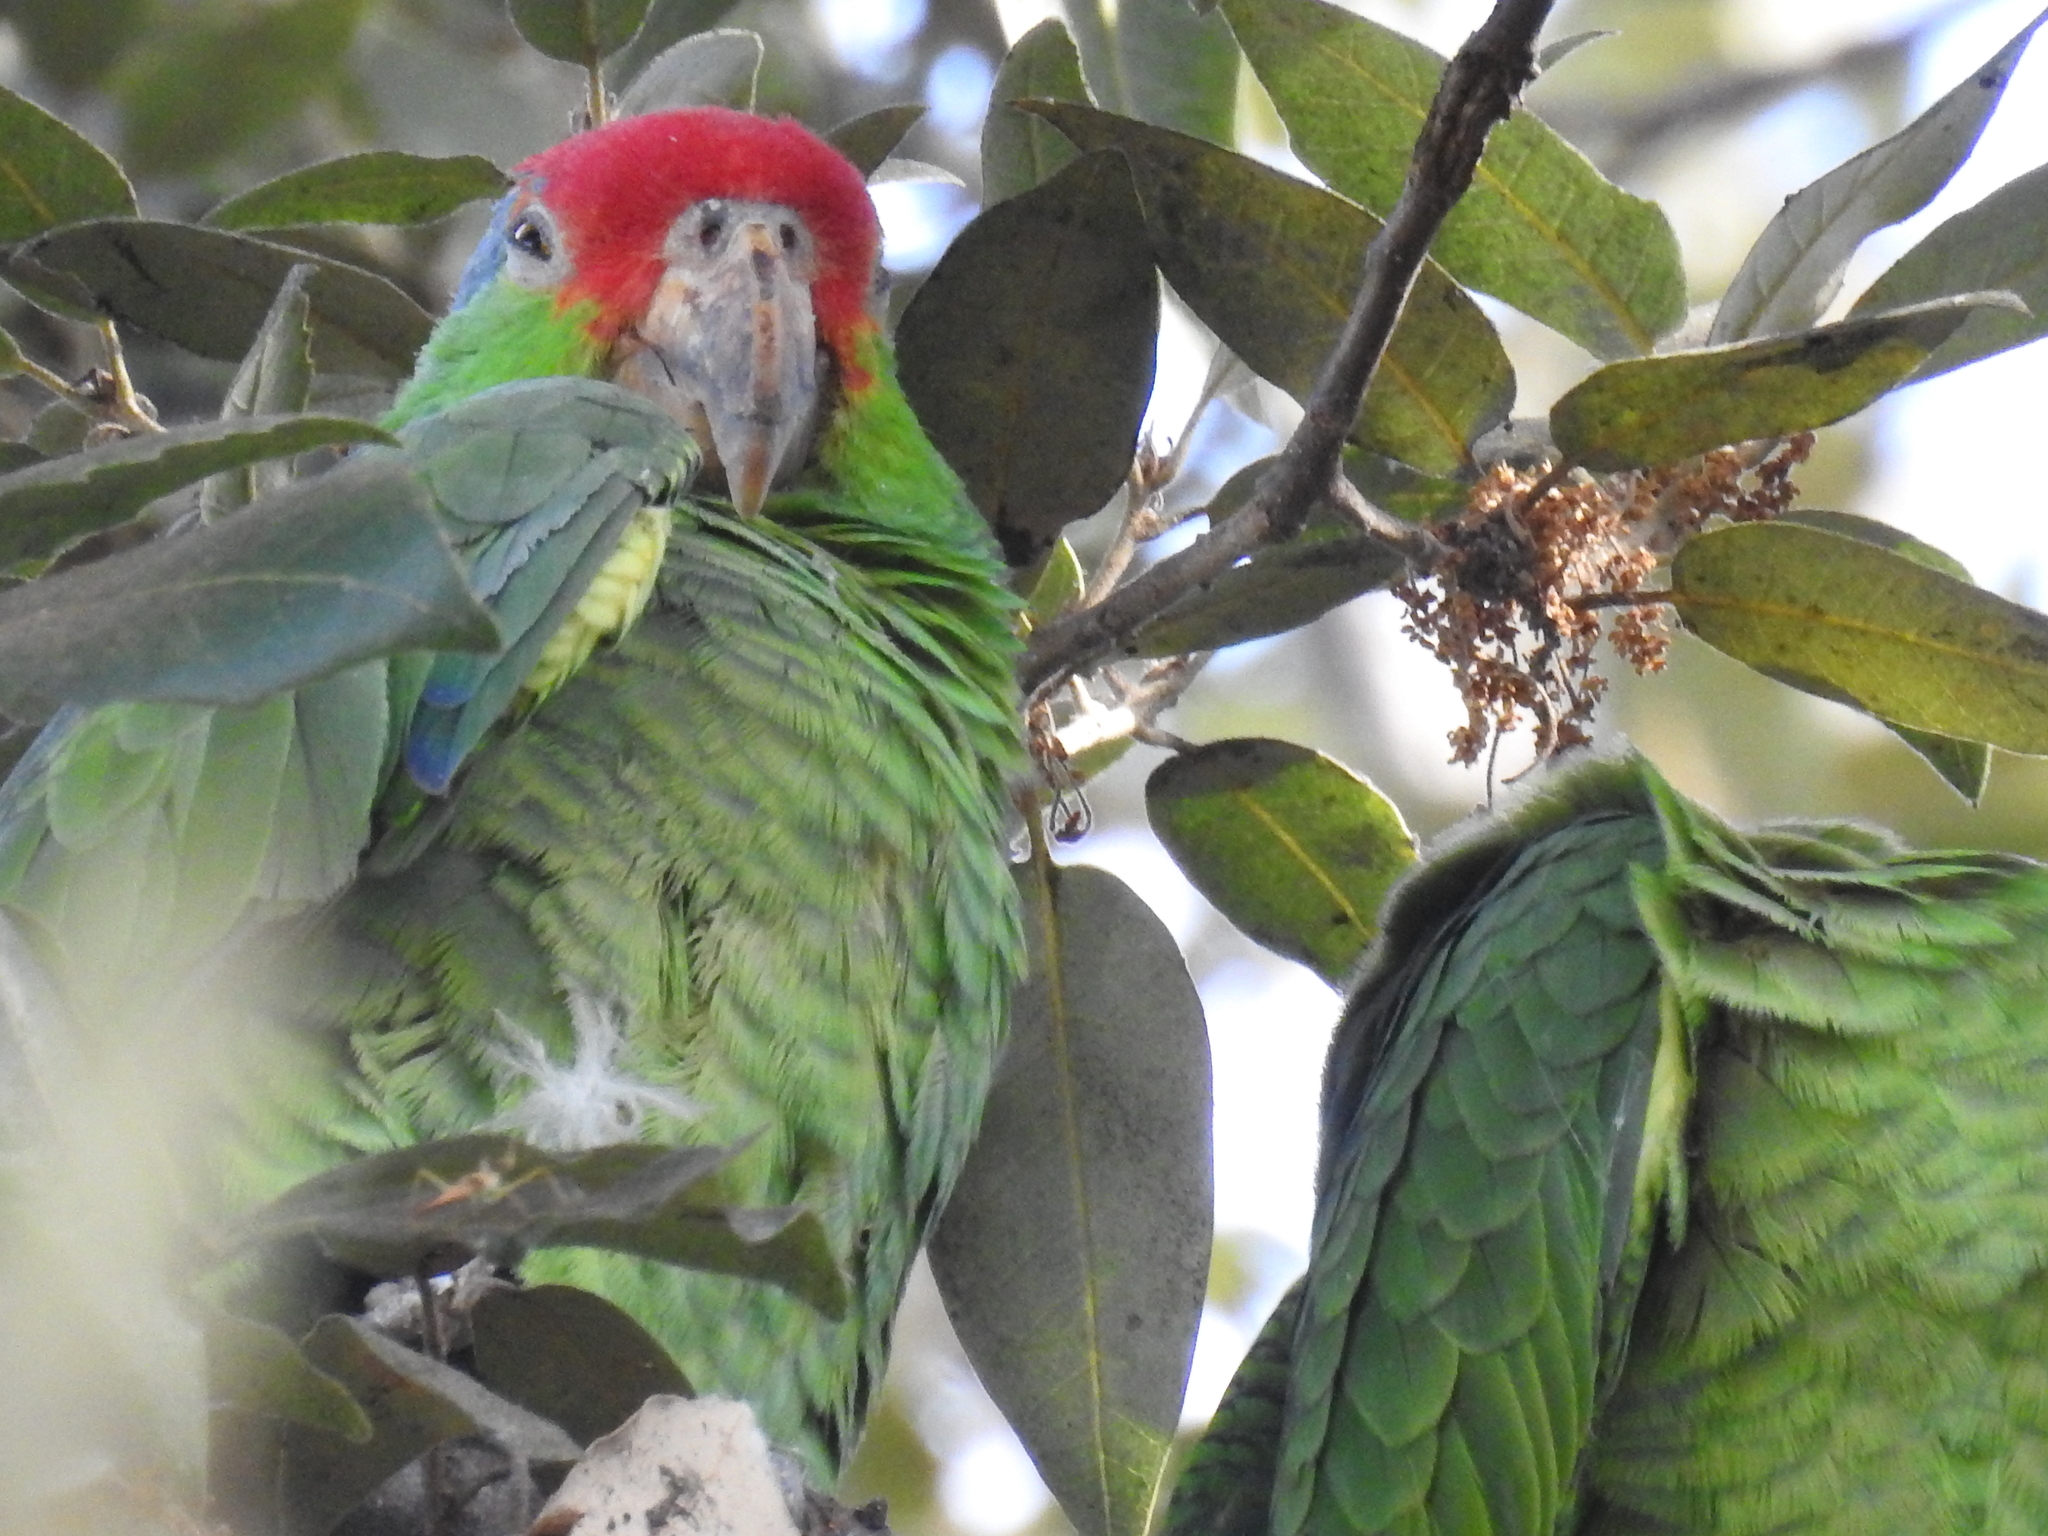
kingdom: Animalia
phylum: Chordata
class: Aves
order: Psittaciformes
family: Psittacidae
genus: Amazona
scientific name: Amazona viridigenalis
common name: Red-crowned amazon
